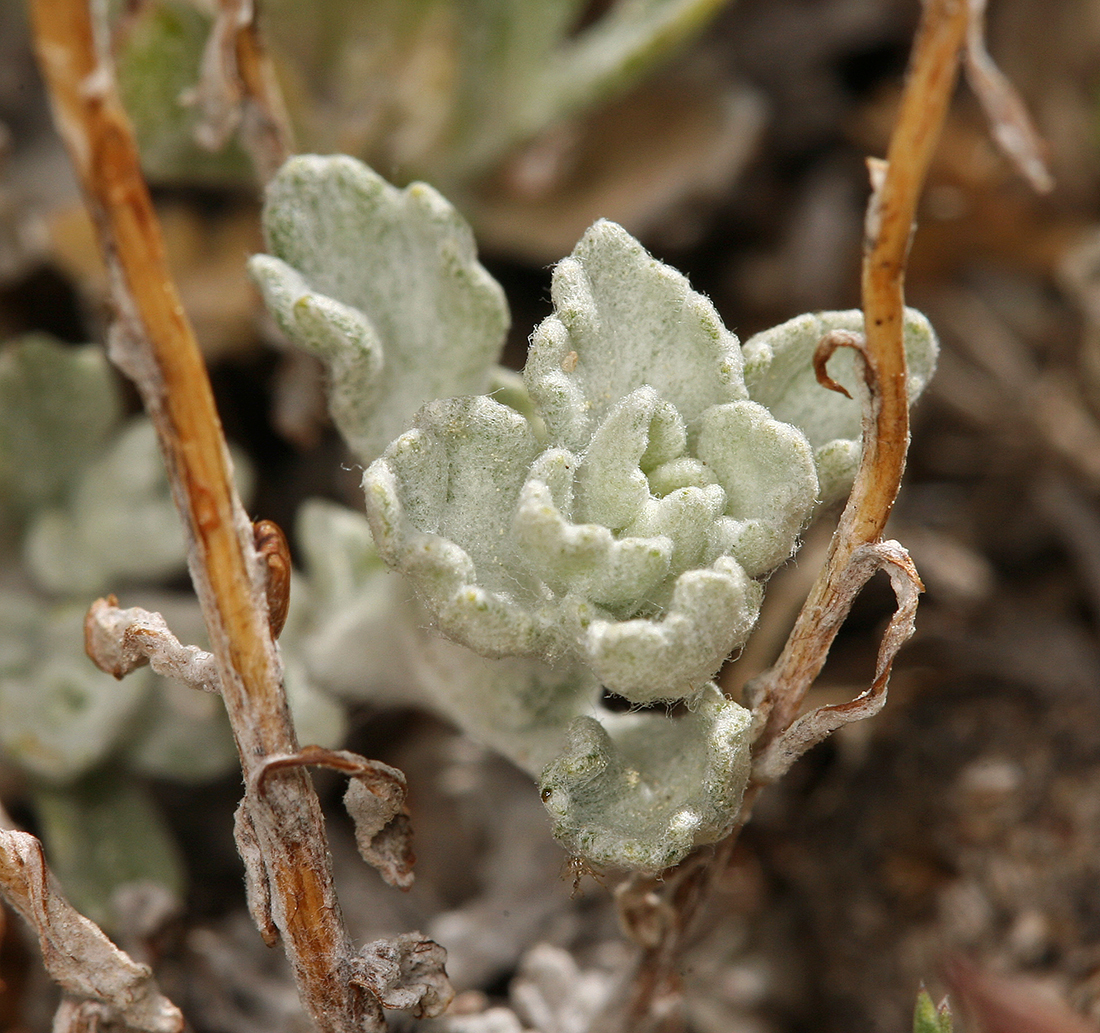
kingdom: Plantae
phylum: Tracheophyta
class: Magnoliopsida
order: Asterales
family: Asteraceae
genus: Eriophyllum
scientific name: Eriophyllum lanatum
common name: Common woolly-sunflower
